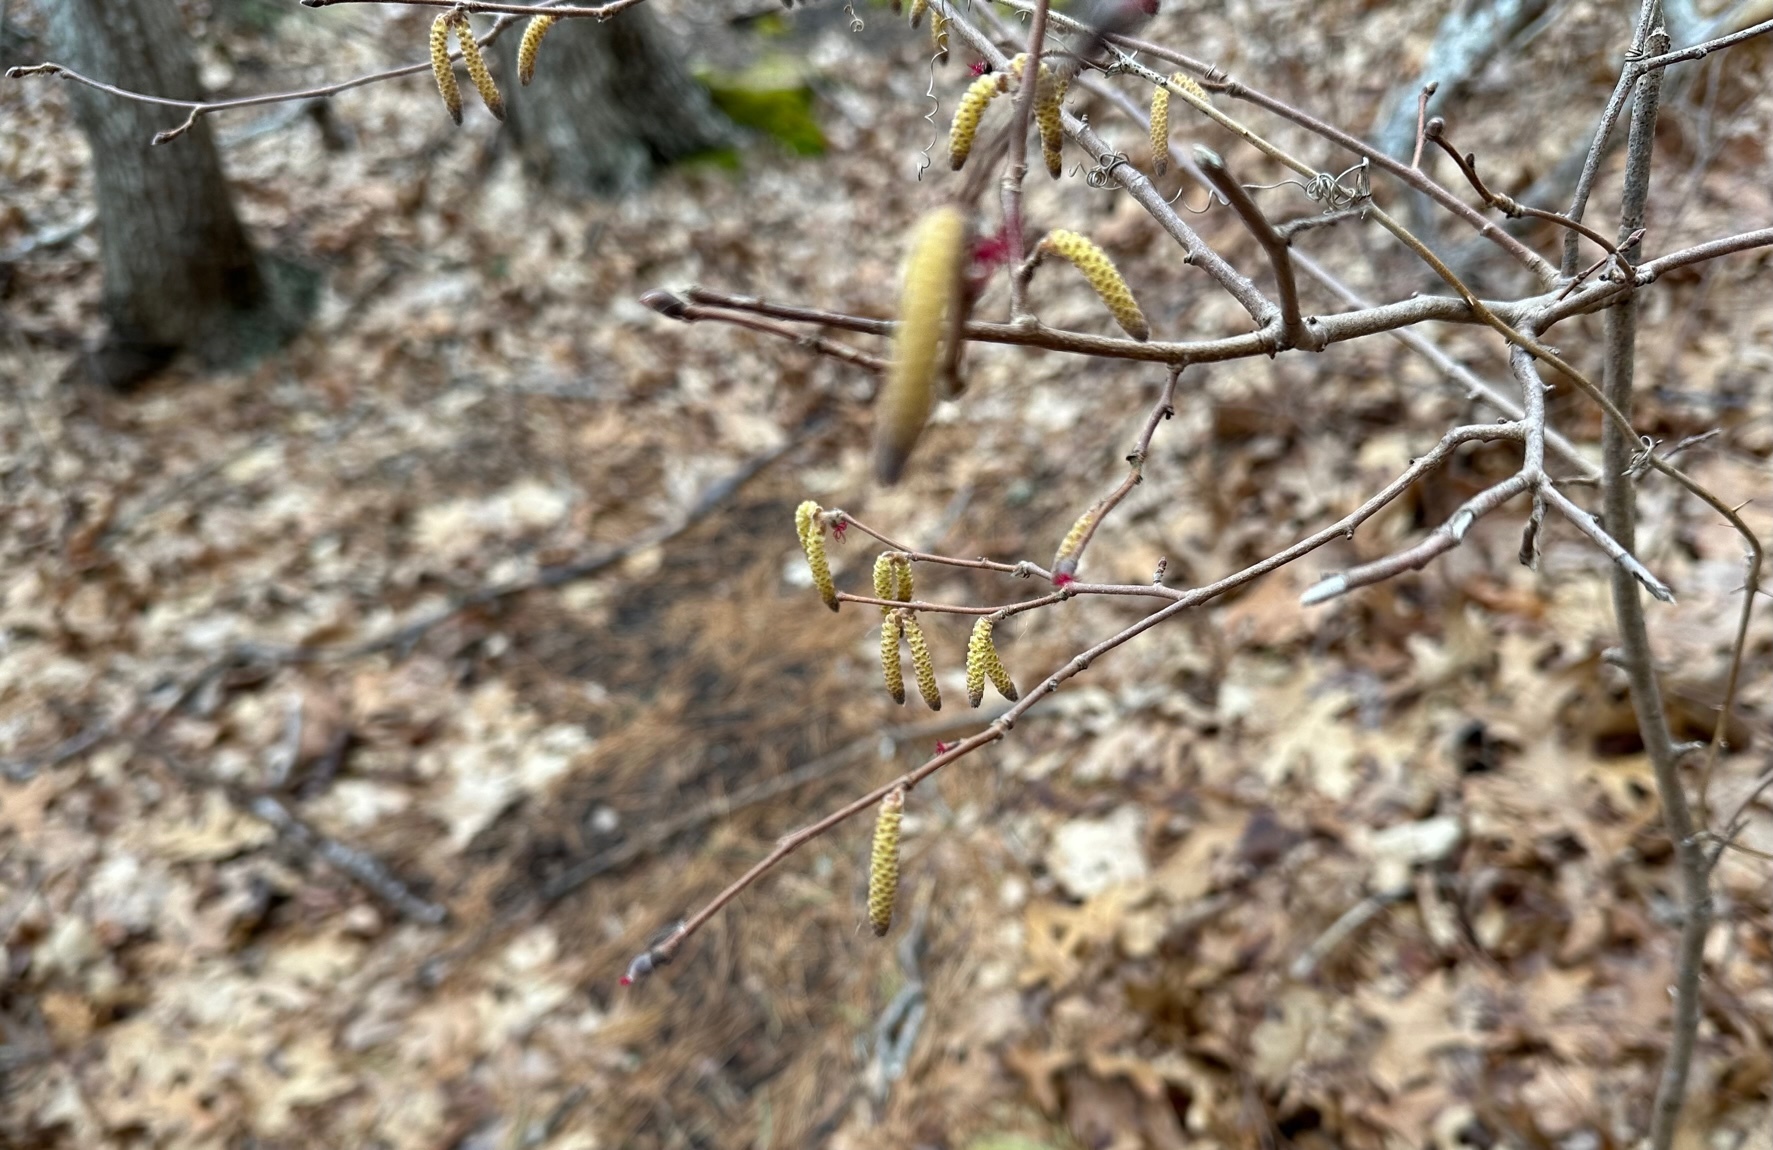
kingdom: Plantae
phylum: Tracheophyta
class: Magnoliopsida
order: Fagales
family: Betulaceae
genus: Corylus
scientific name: Corylus cornuta
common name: Beaked hazel
